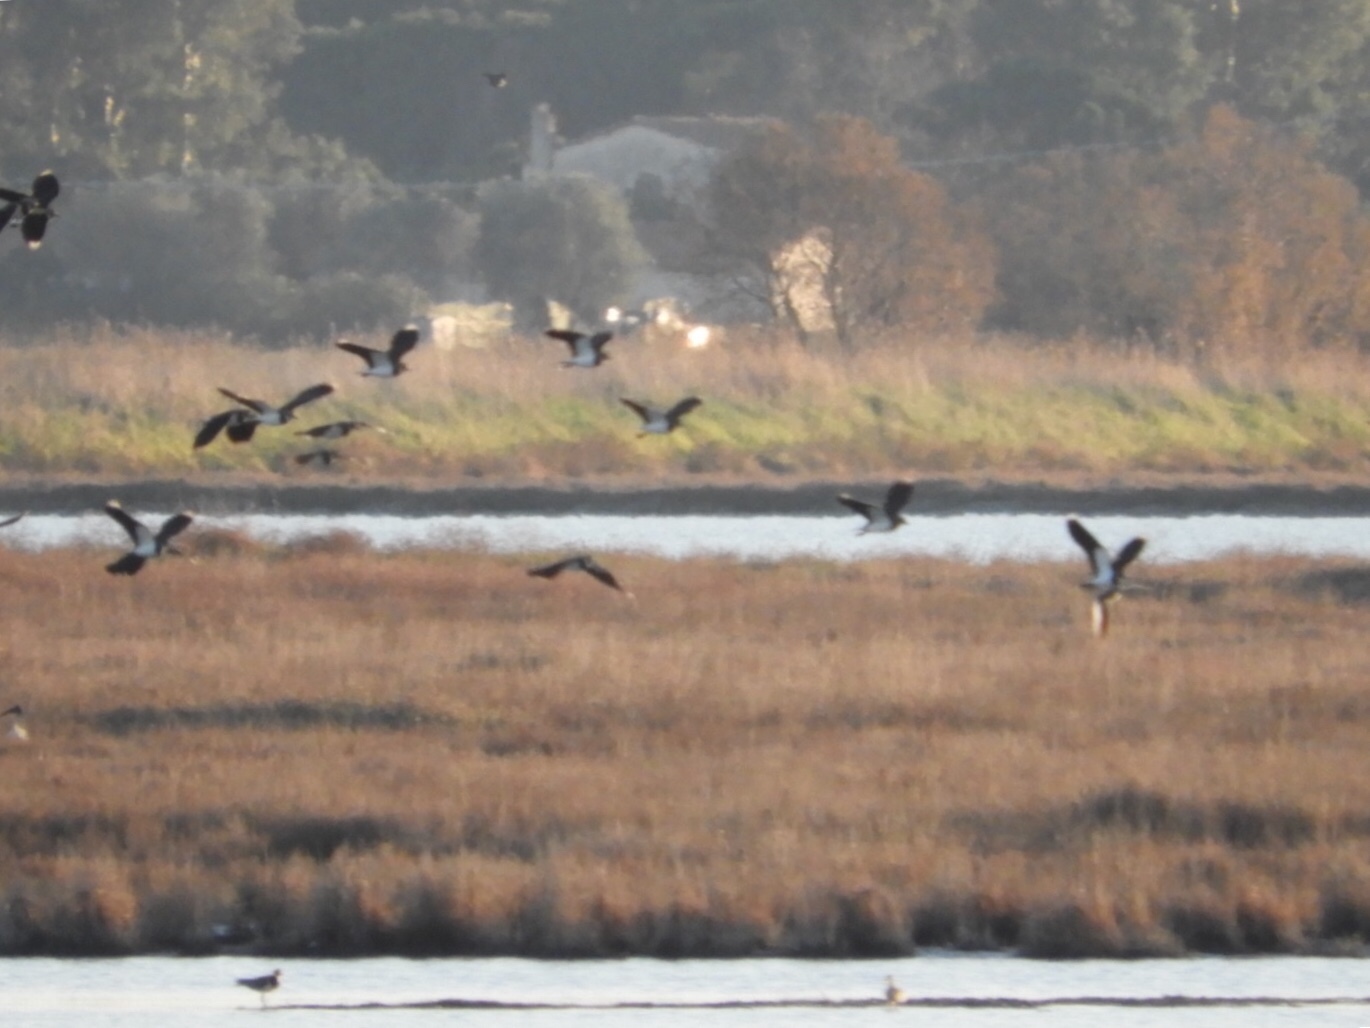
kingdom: Animalia
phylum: Chordata
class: Aves
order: Charadriiformes
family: Charadriidae
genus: Vanellus
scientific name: Vanellus vanellus
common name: Northern lapwing
